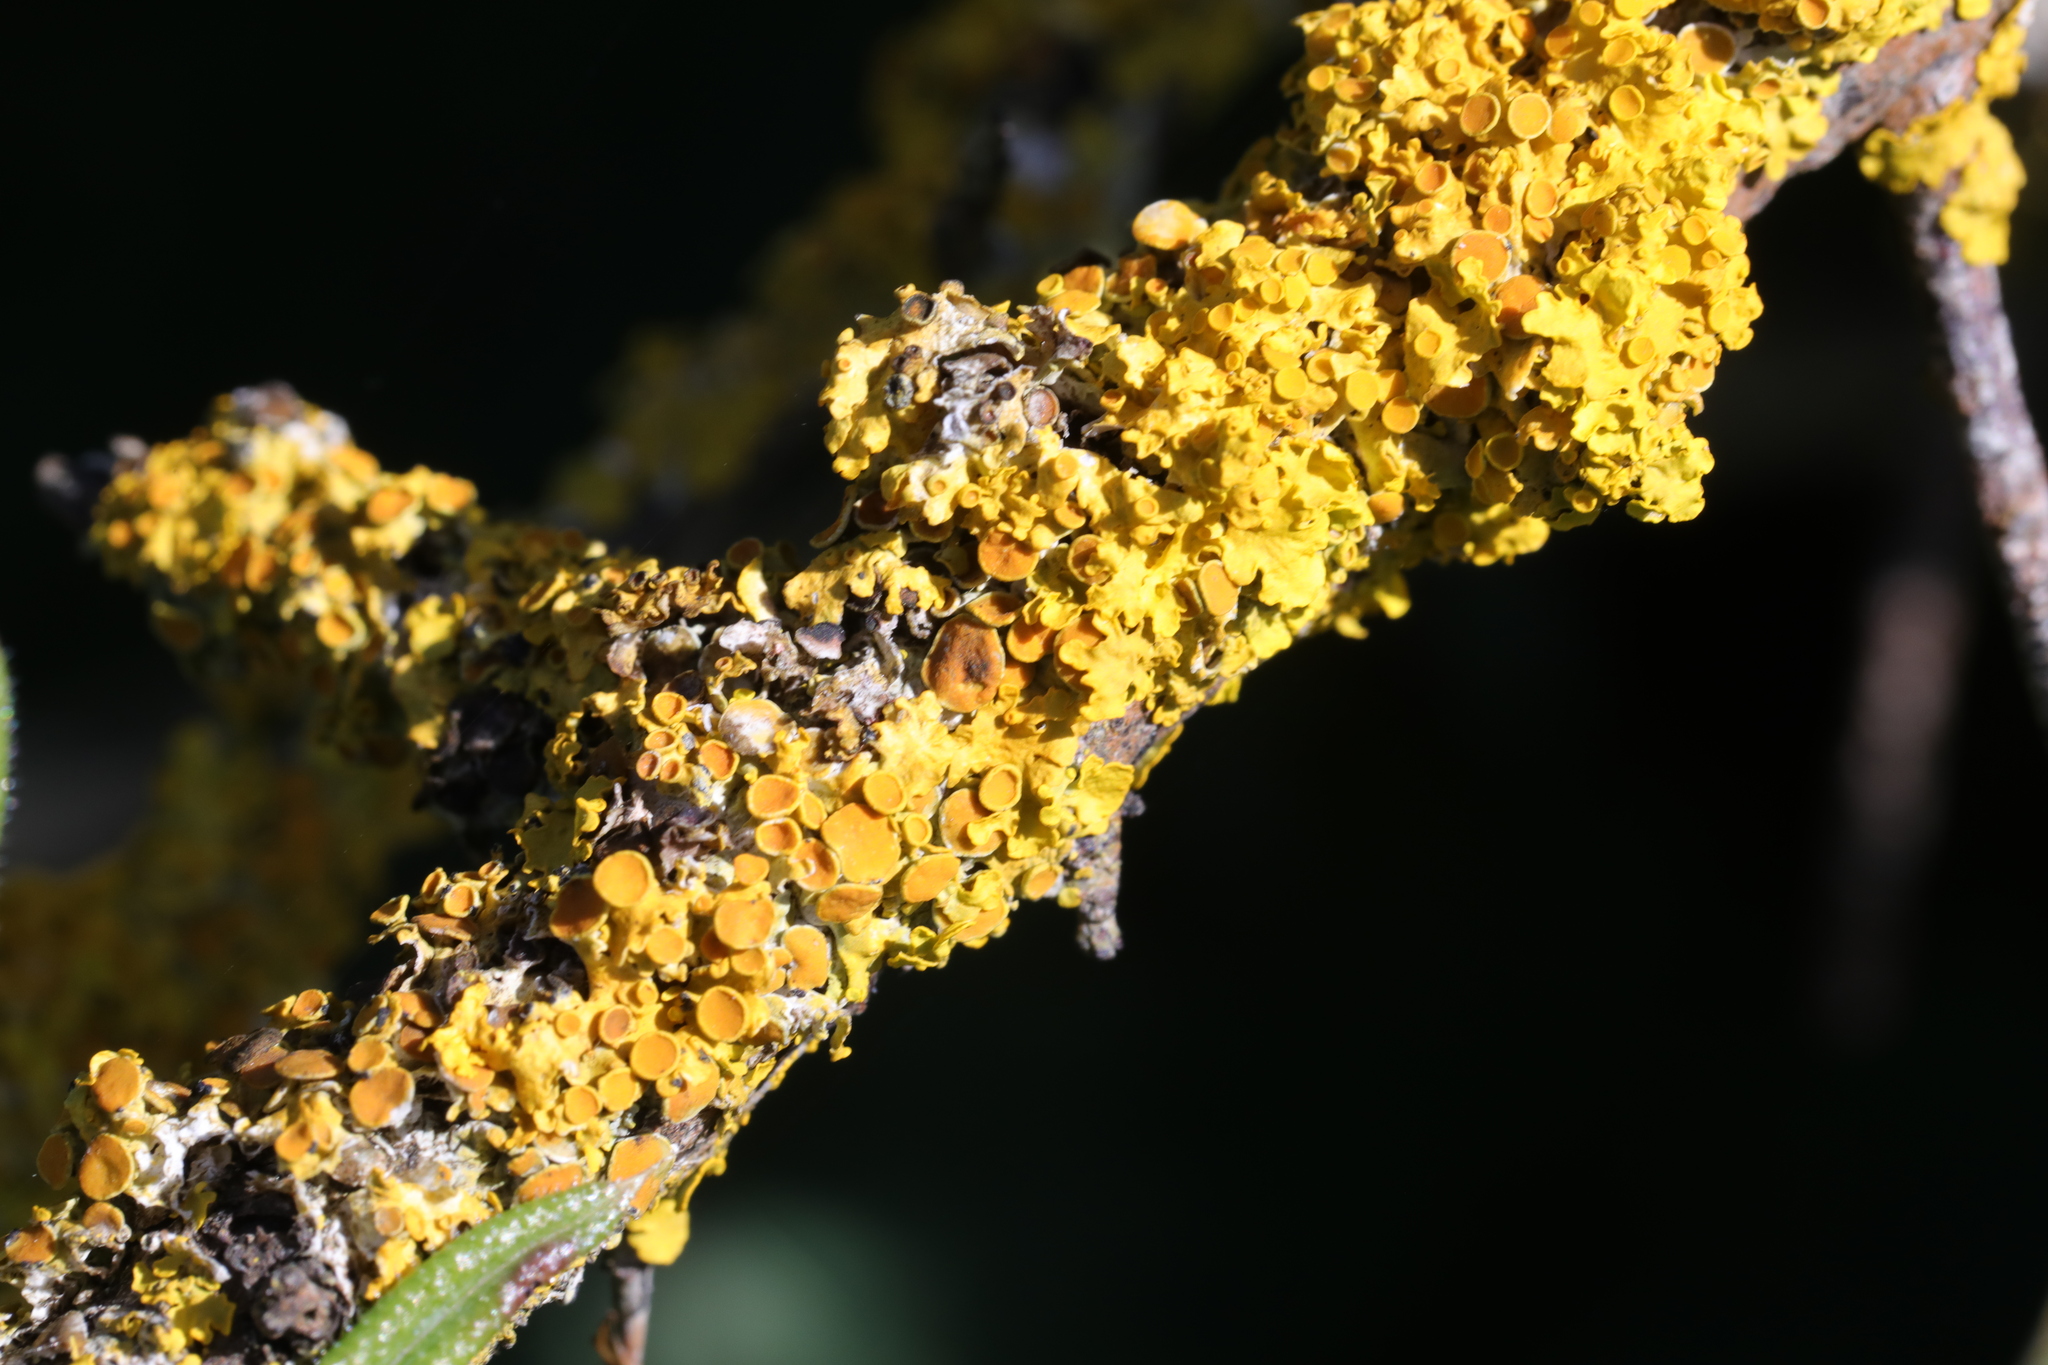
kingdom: Fungi
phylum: Ascomycota
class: Lecanoromycetes
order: Teloschistales
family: Teloschistaceae
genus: Xanthoria
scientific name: Xanthoria parietina
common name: Common orange lichen
